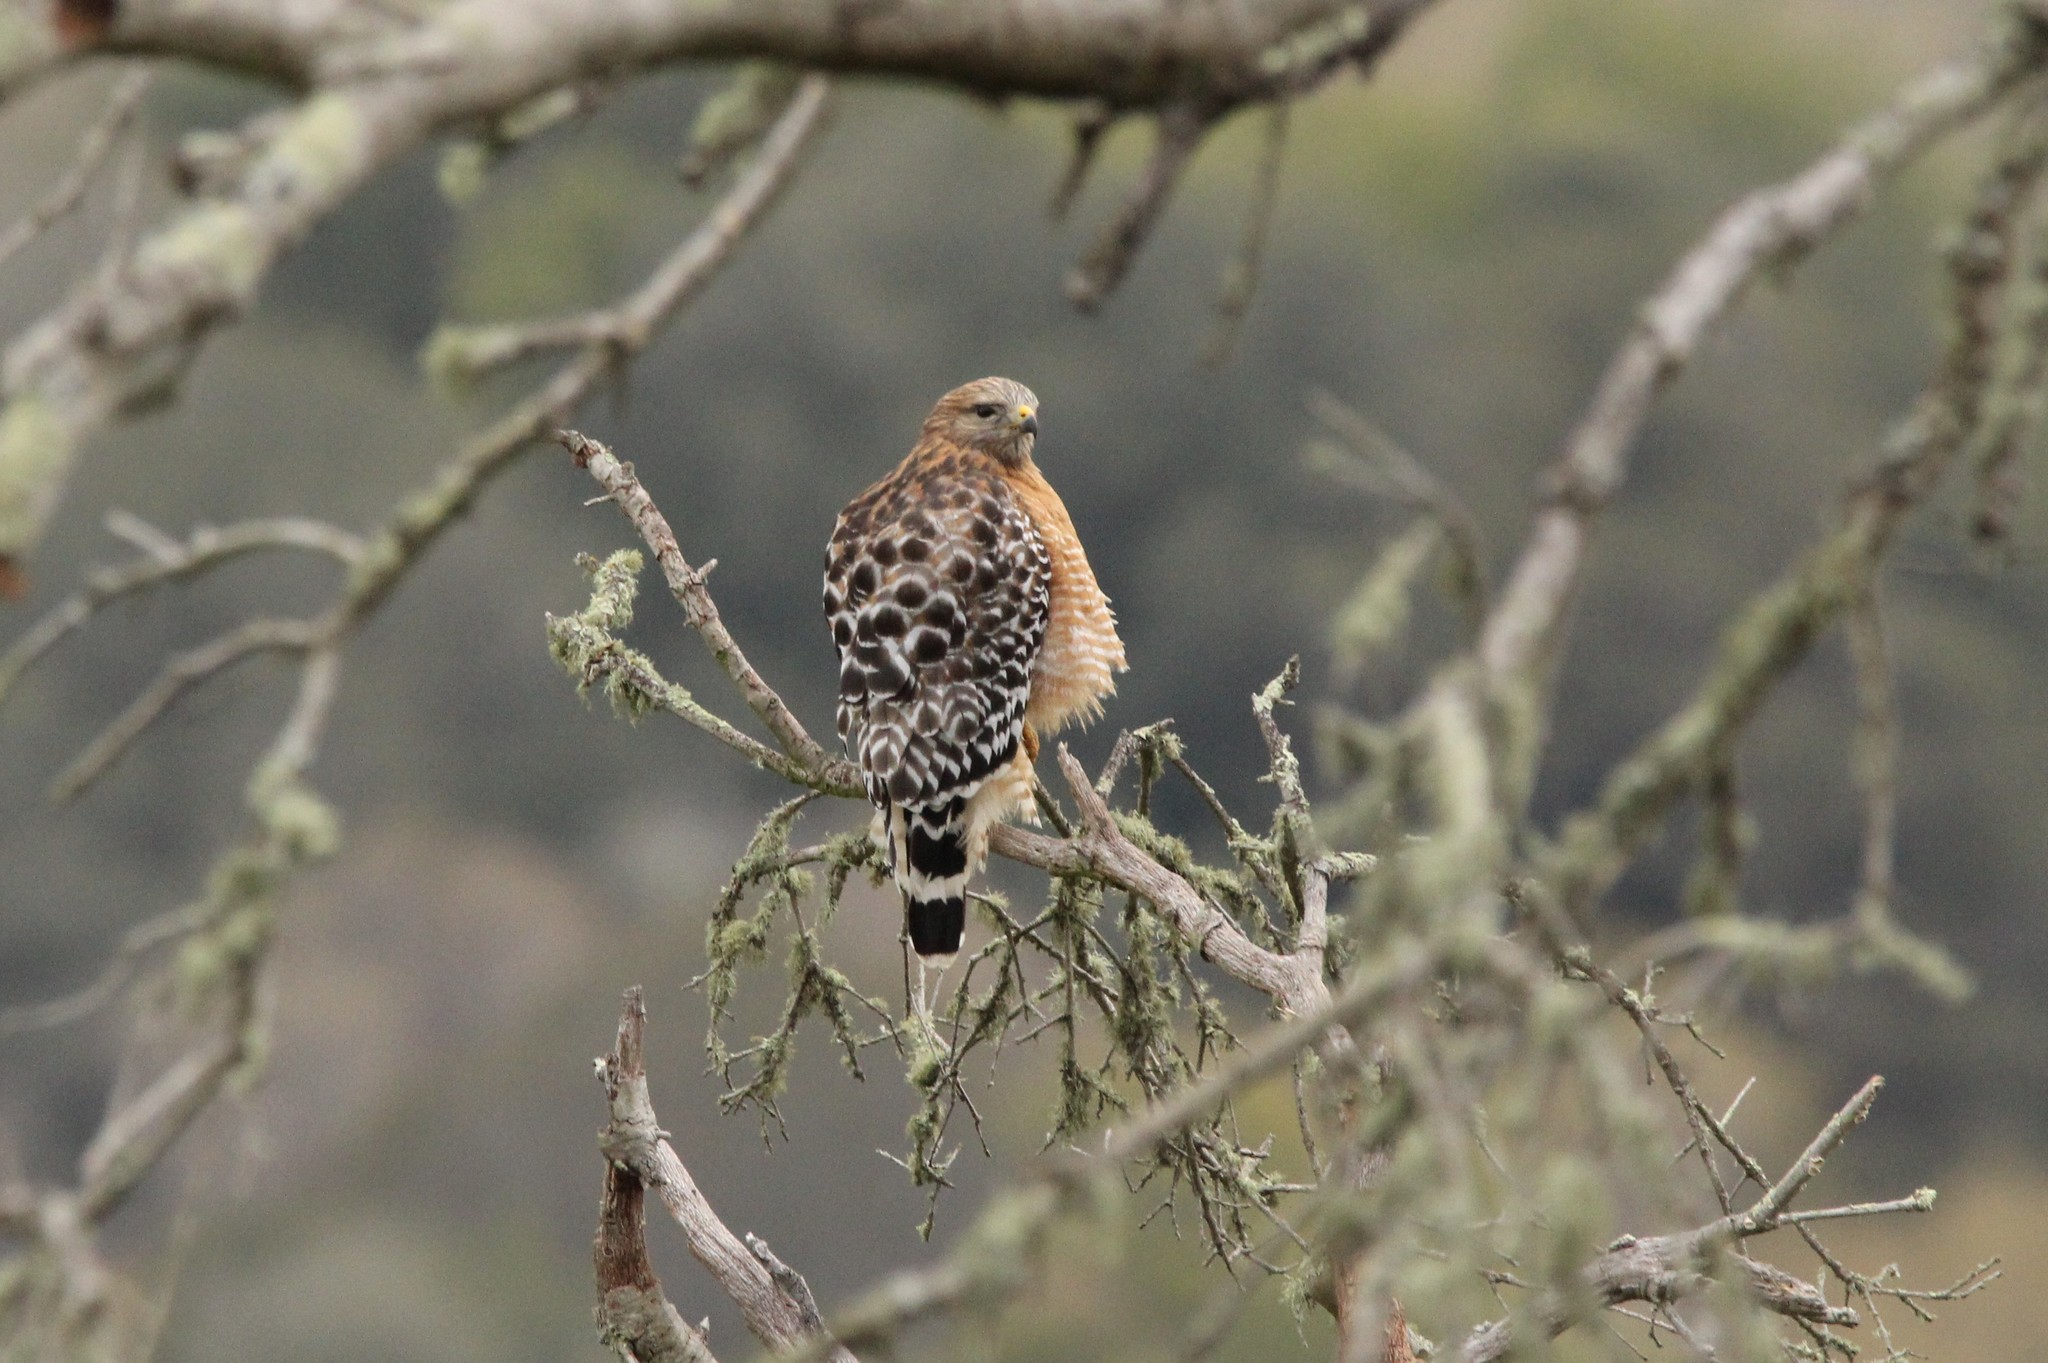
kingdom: Animalia
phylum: Chordata
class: Aves
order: Accipitriformes
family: Accipitridae
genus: Buteo
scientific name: Buteo lineatus
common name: Red-shouldered hawk
